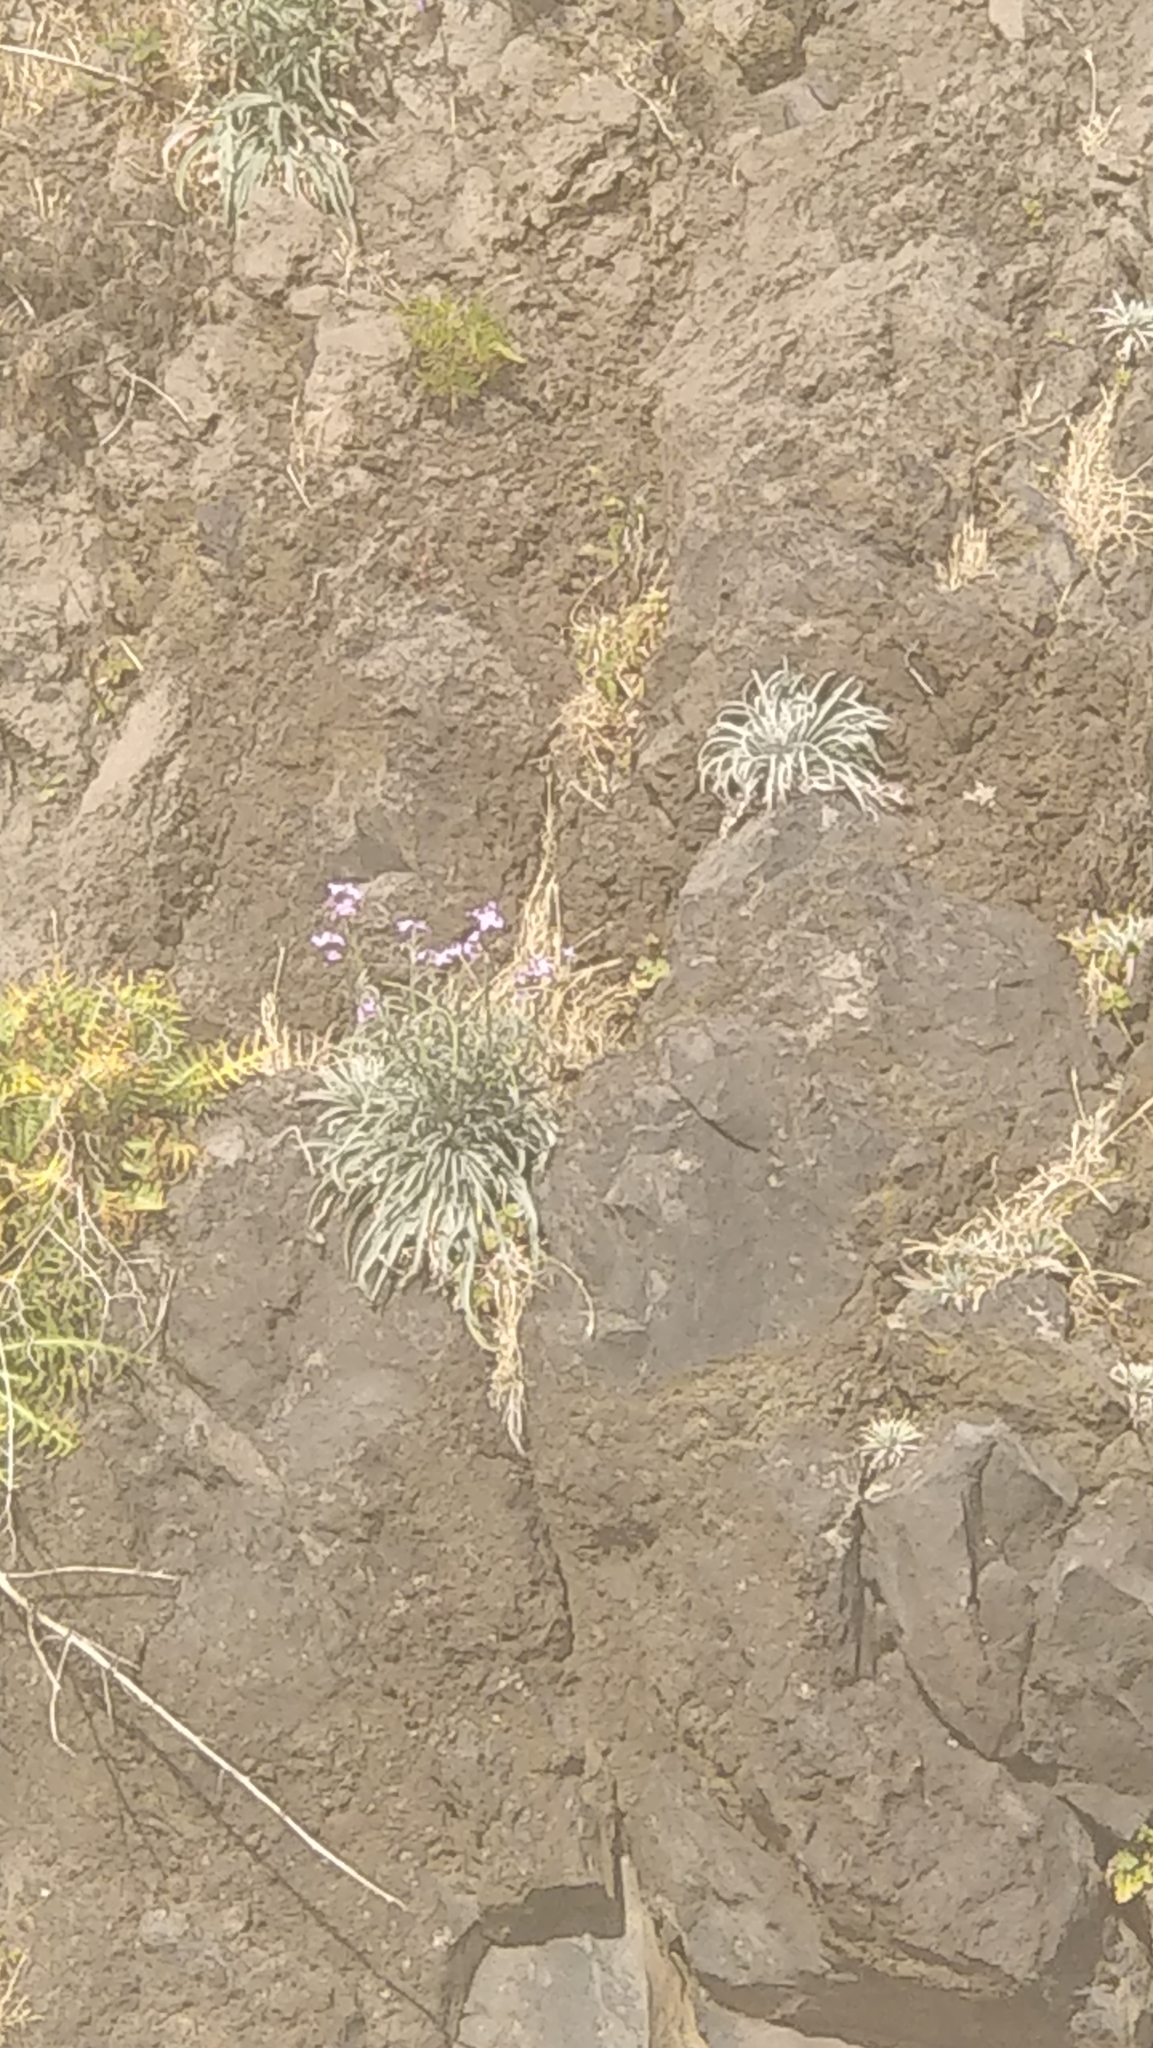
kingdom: Plantae
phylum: Tracheophyta
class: Magnoliopsida
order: Brassicales
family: Brassicaceae
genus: Matthiola
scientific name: Matthiola maderensis
